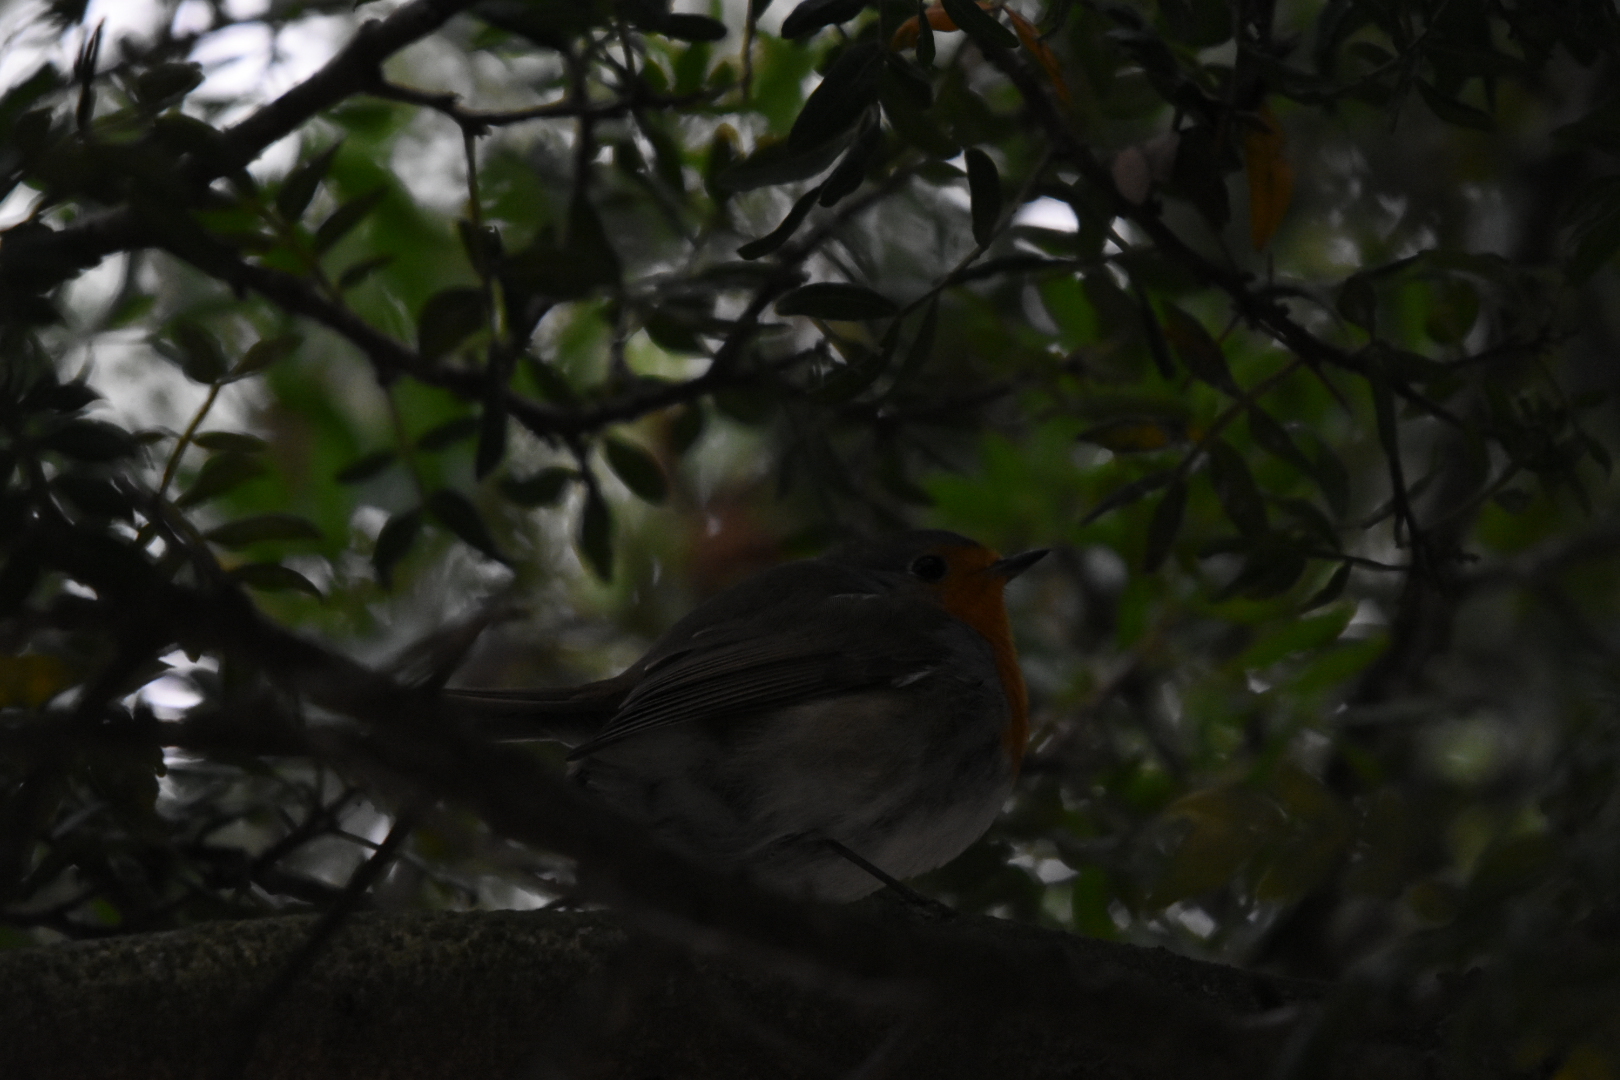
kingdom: Animalia
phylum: Chordata
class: Aves
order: Passeriformes
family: Muscicapidae
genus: Erithacus
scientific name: Erithacus rubecula
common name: European robin
